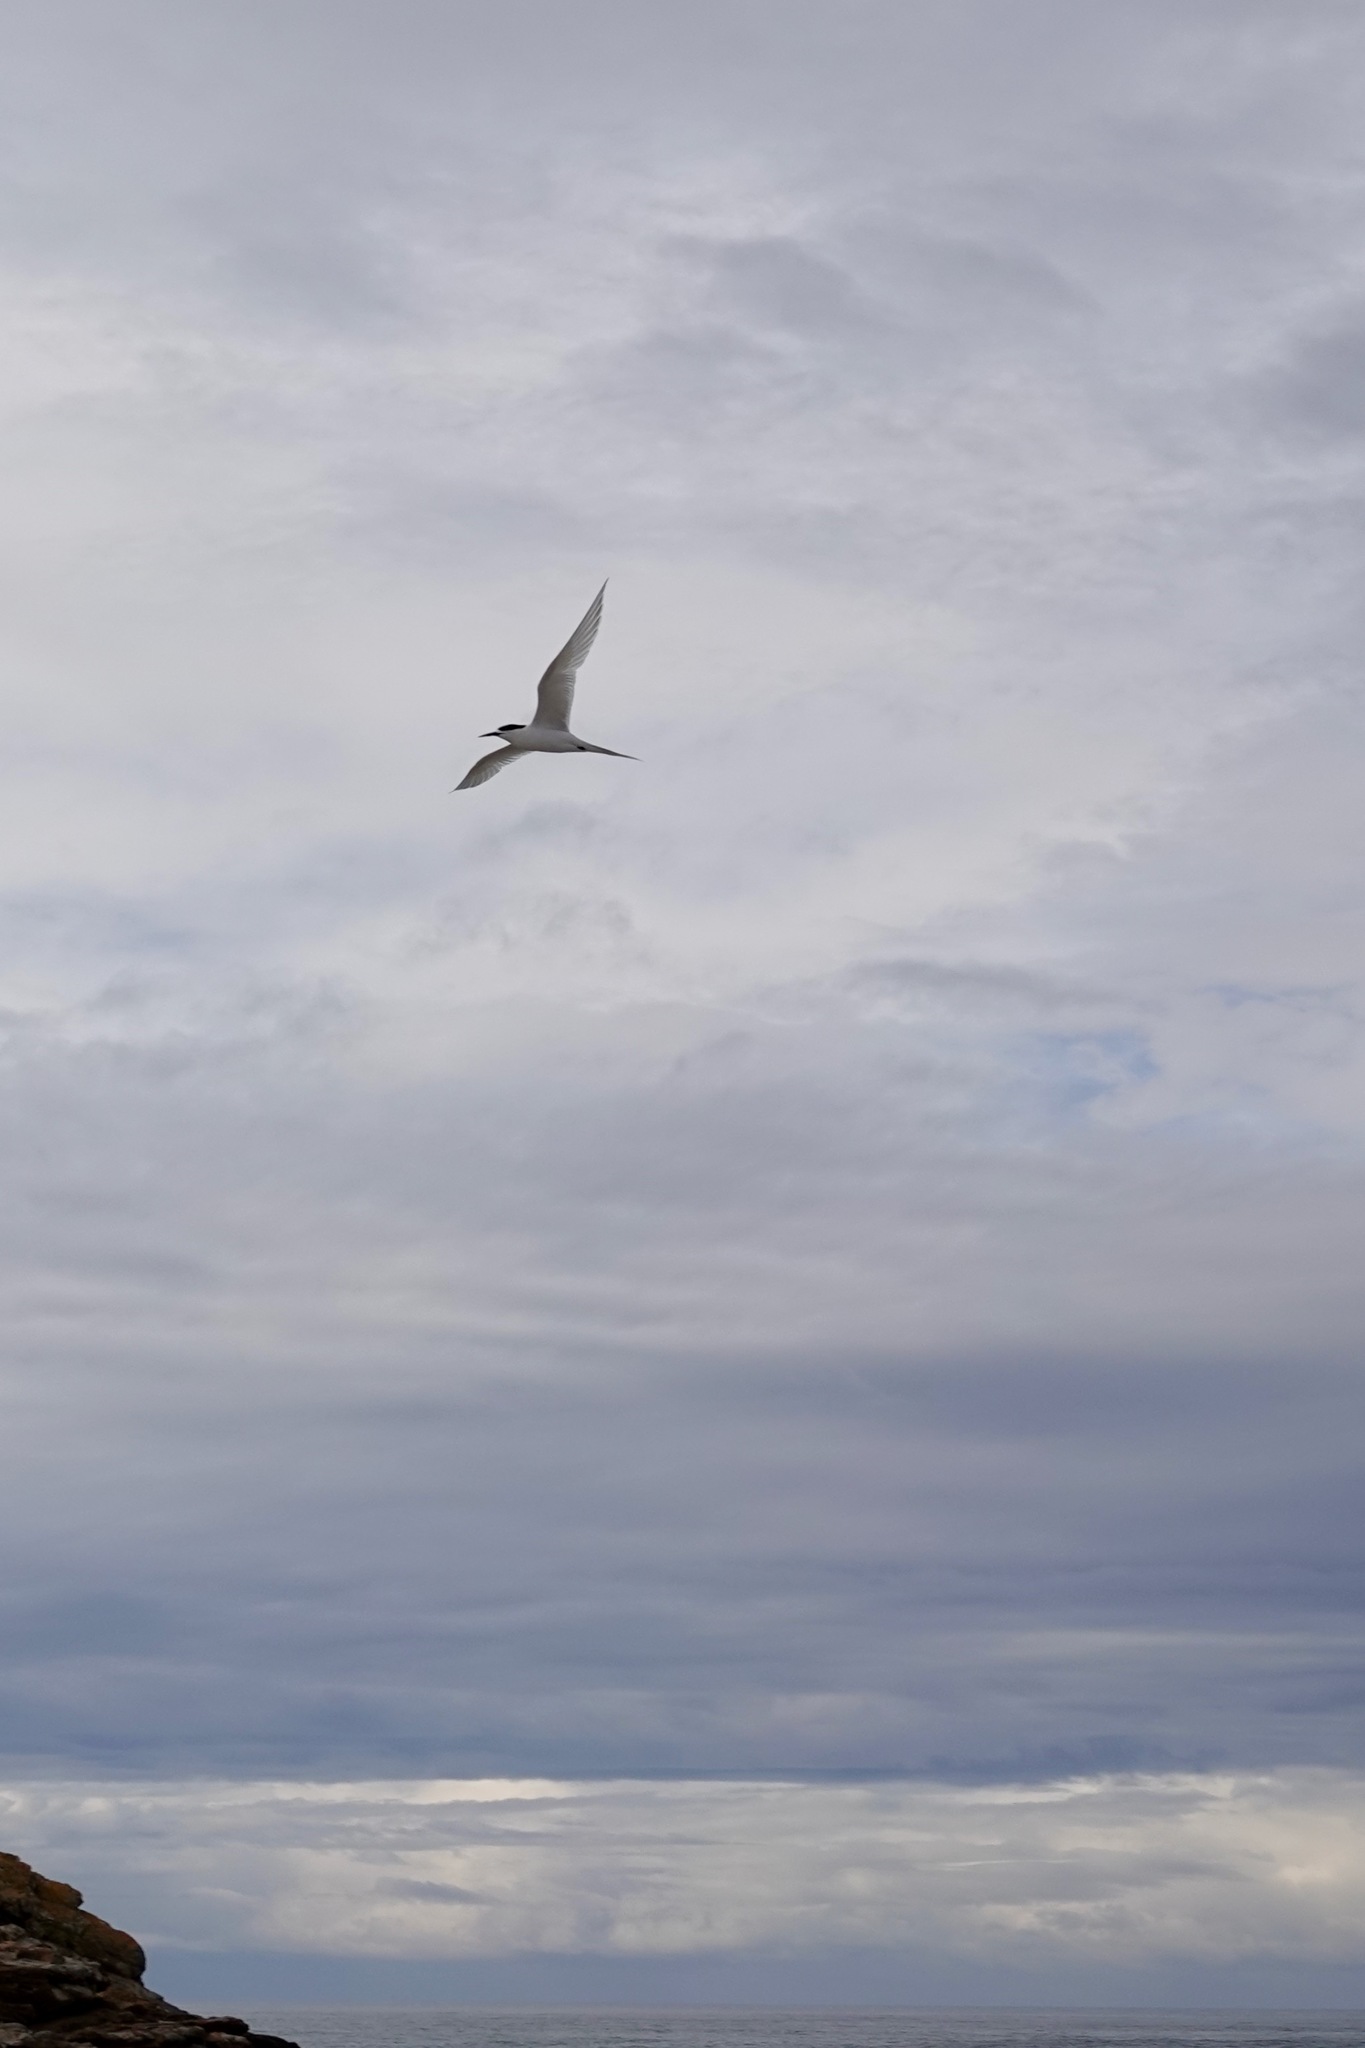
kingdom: Animalia
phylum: Chordata
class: Aves
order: Charadriiformes
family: Laridae
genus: Sterna
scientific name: Sterna striata
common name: White-fronted tern
